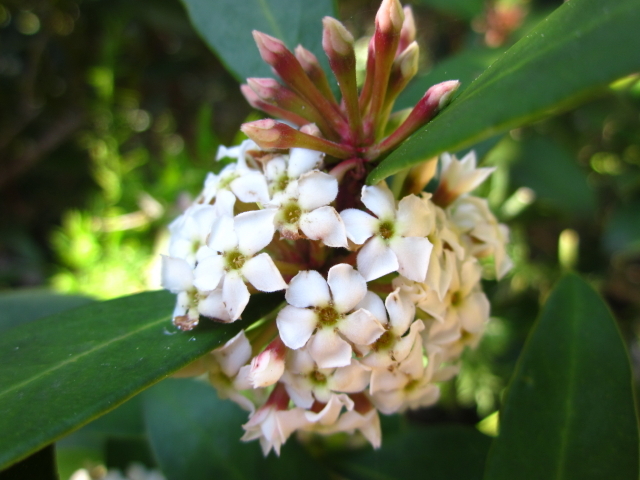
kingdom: Plantae
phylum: Tracheophyta
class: Magnoliopsida
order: Gentianales
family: Apocynaceae
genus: Acokanthera
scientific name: Acokanthera oppositifolia
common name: Bushman's-poison
